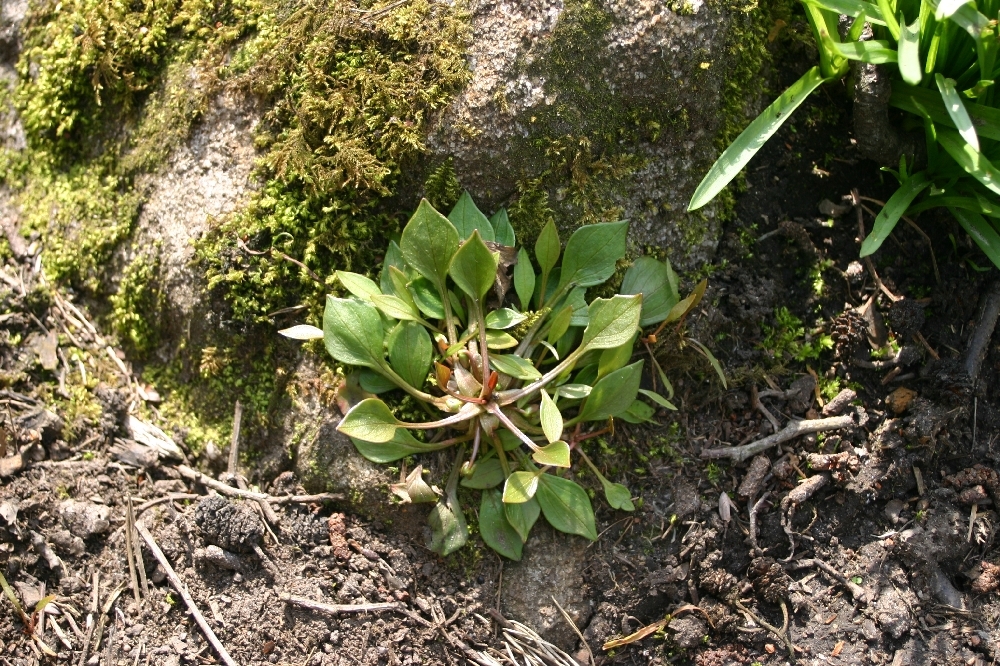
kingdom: Plantae
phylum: Tracheophyta
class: Magnoliopsida
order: Caryophyllales
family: Montiaceae
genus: Claytonia
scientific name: Claytonia sibirica
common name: Pink purslane
